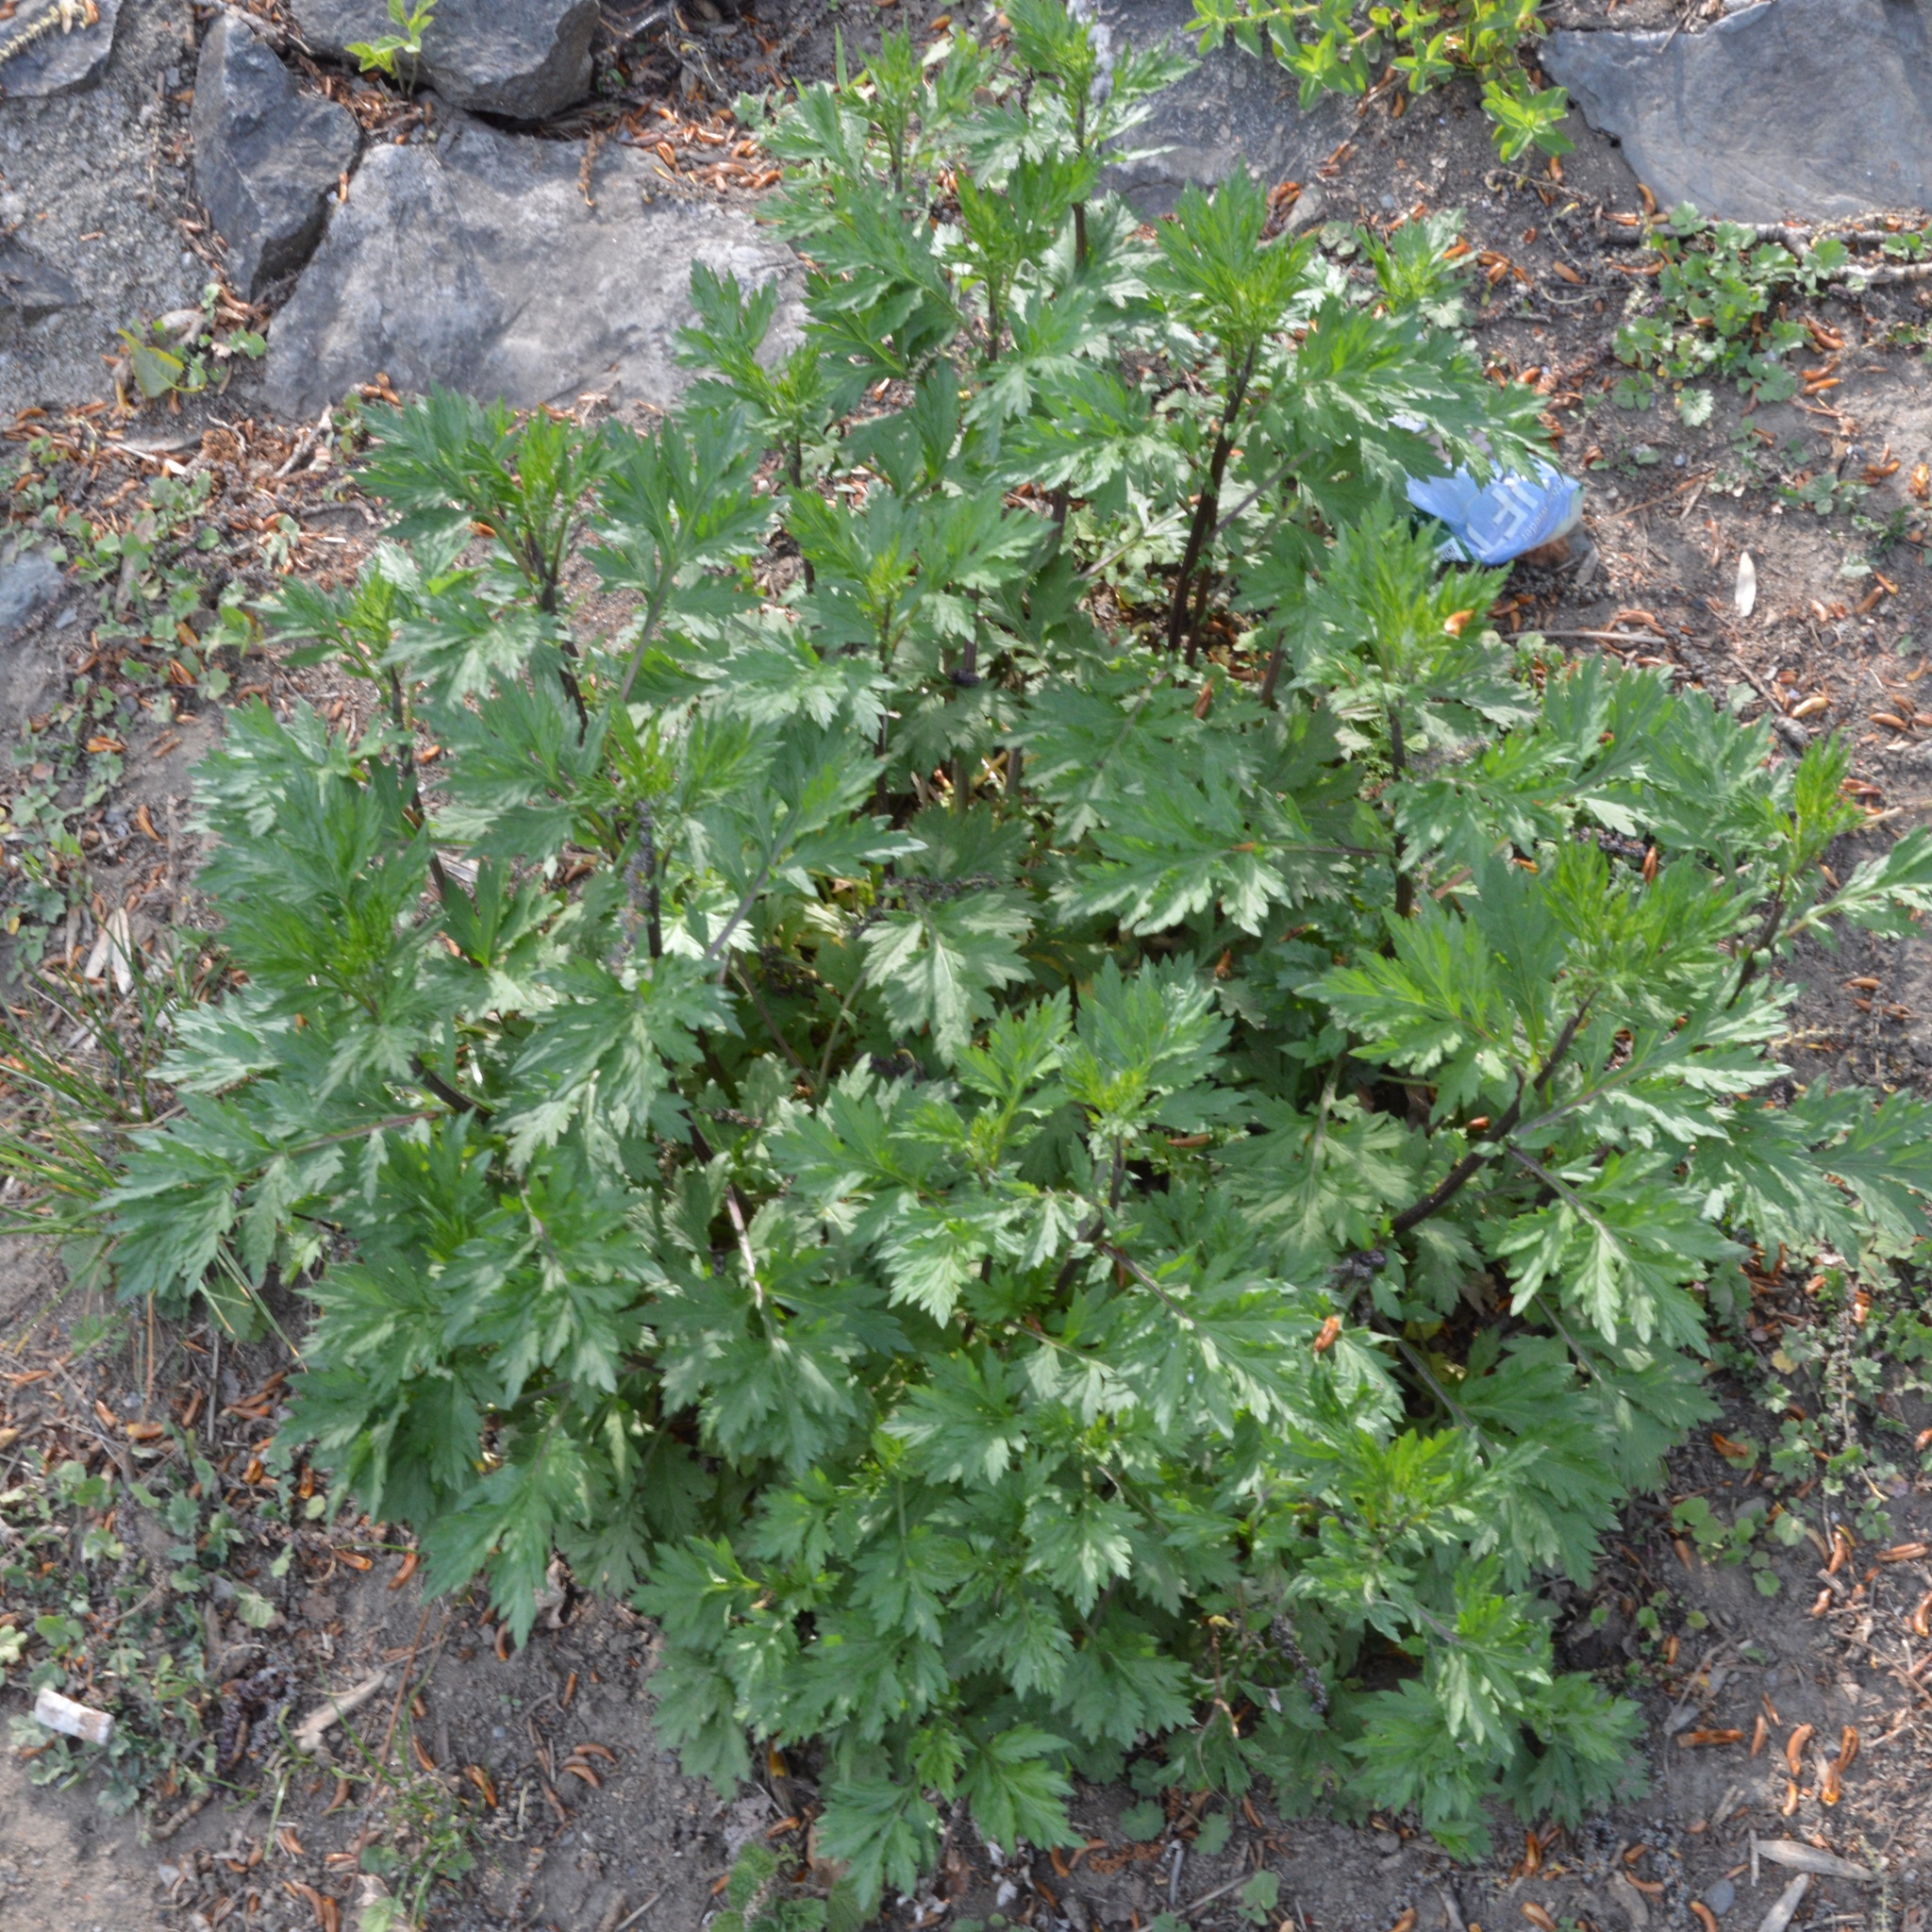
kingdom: Plantae
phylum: Tracheophyta
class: Magnoliopsida
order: Asterales
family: Asteraceae
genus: Artemisia
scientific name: Artemisia vulgaris
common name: Mugwort
